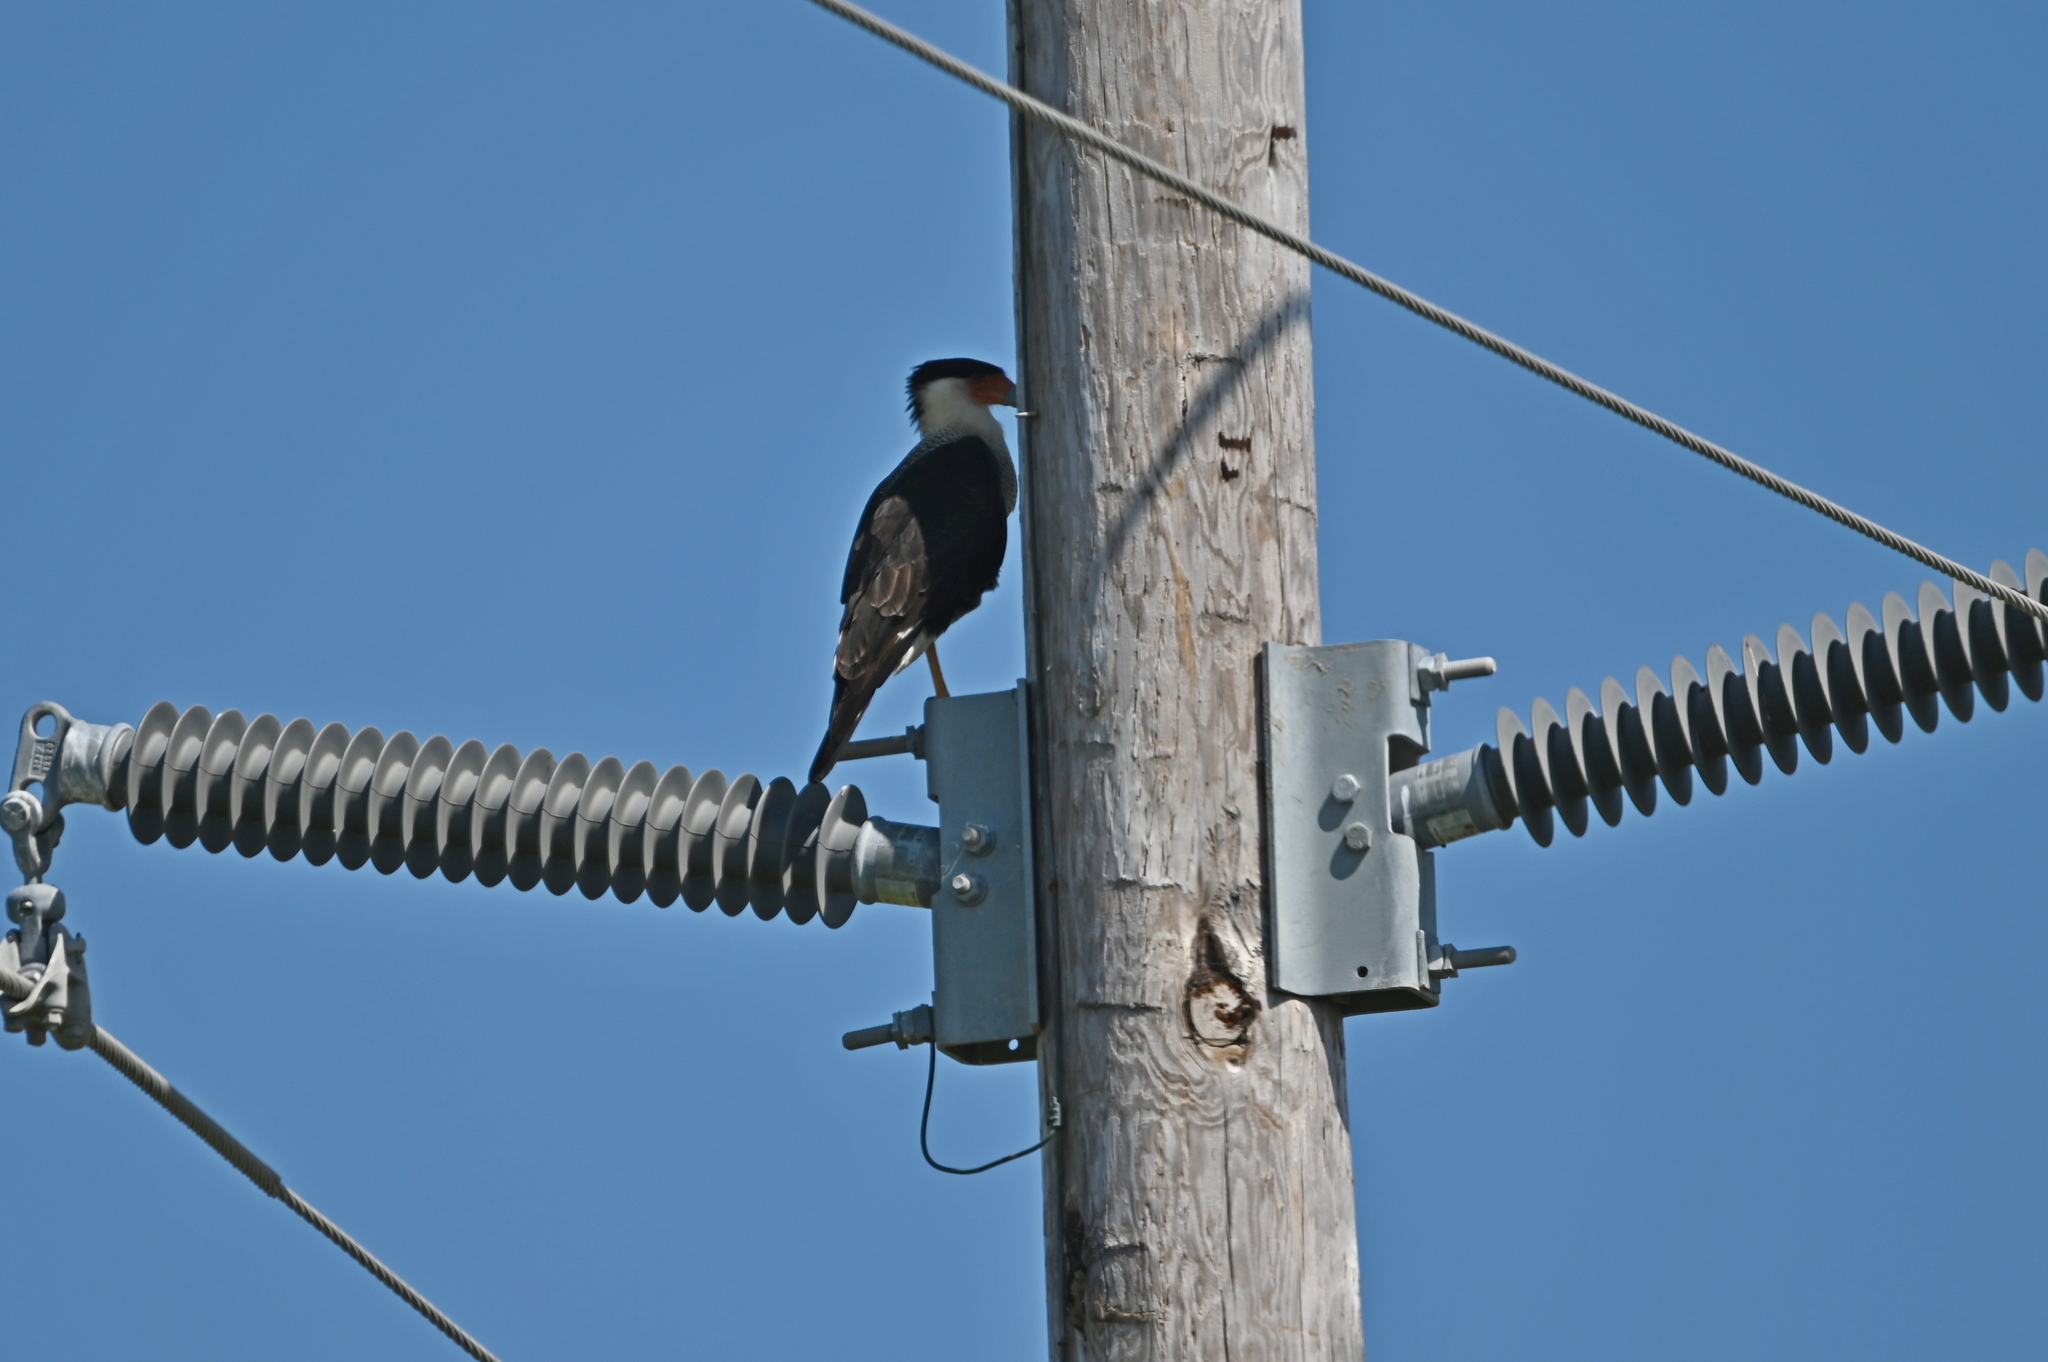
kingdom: Animalia
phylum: Chordata
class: Aves
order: Falconiformes
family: Falconidae
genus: Caracara
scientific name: Caracara plancus
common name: Southern caracara
